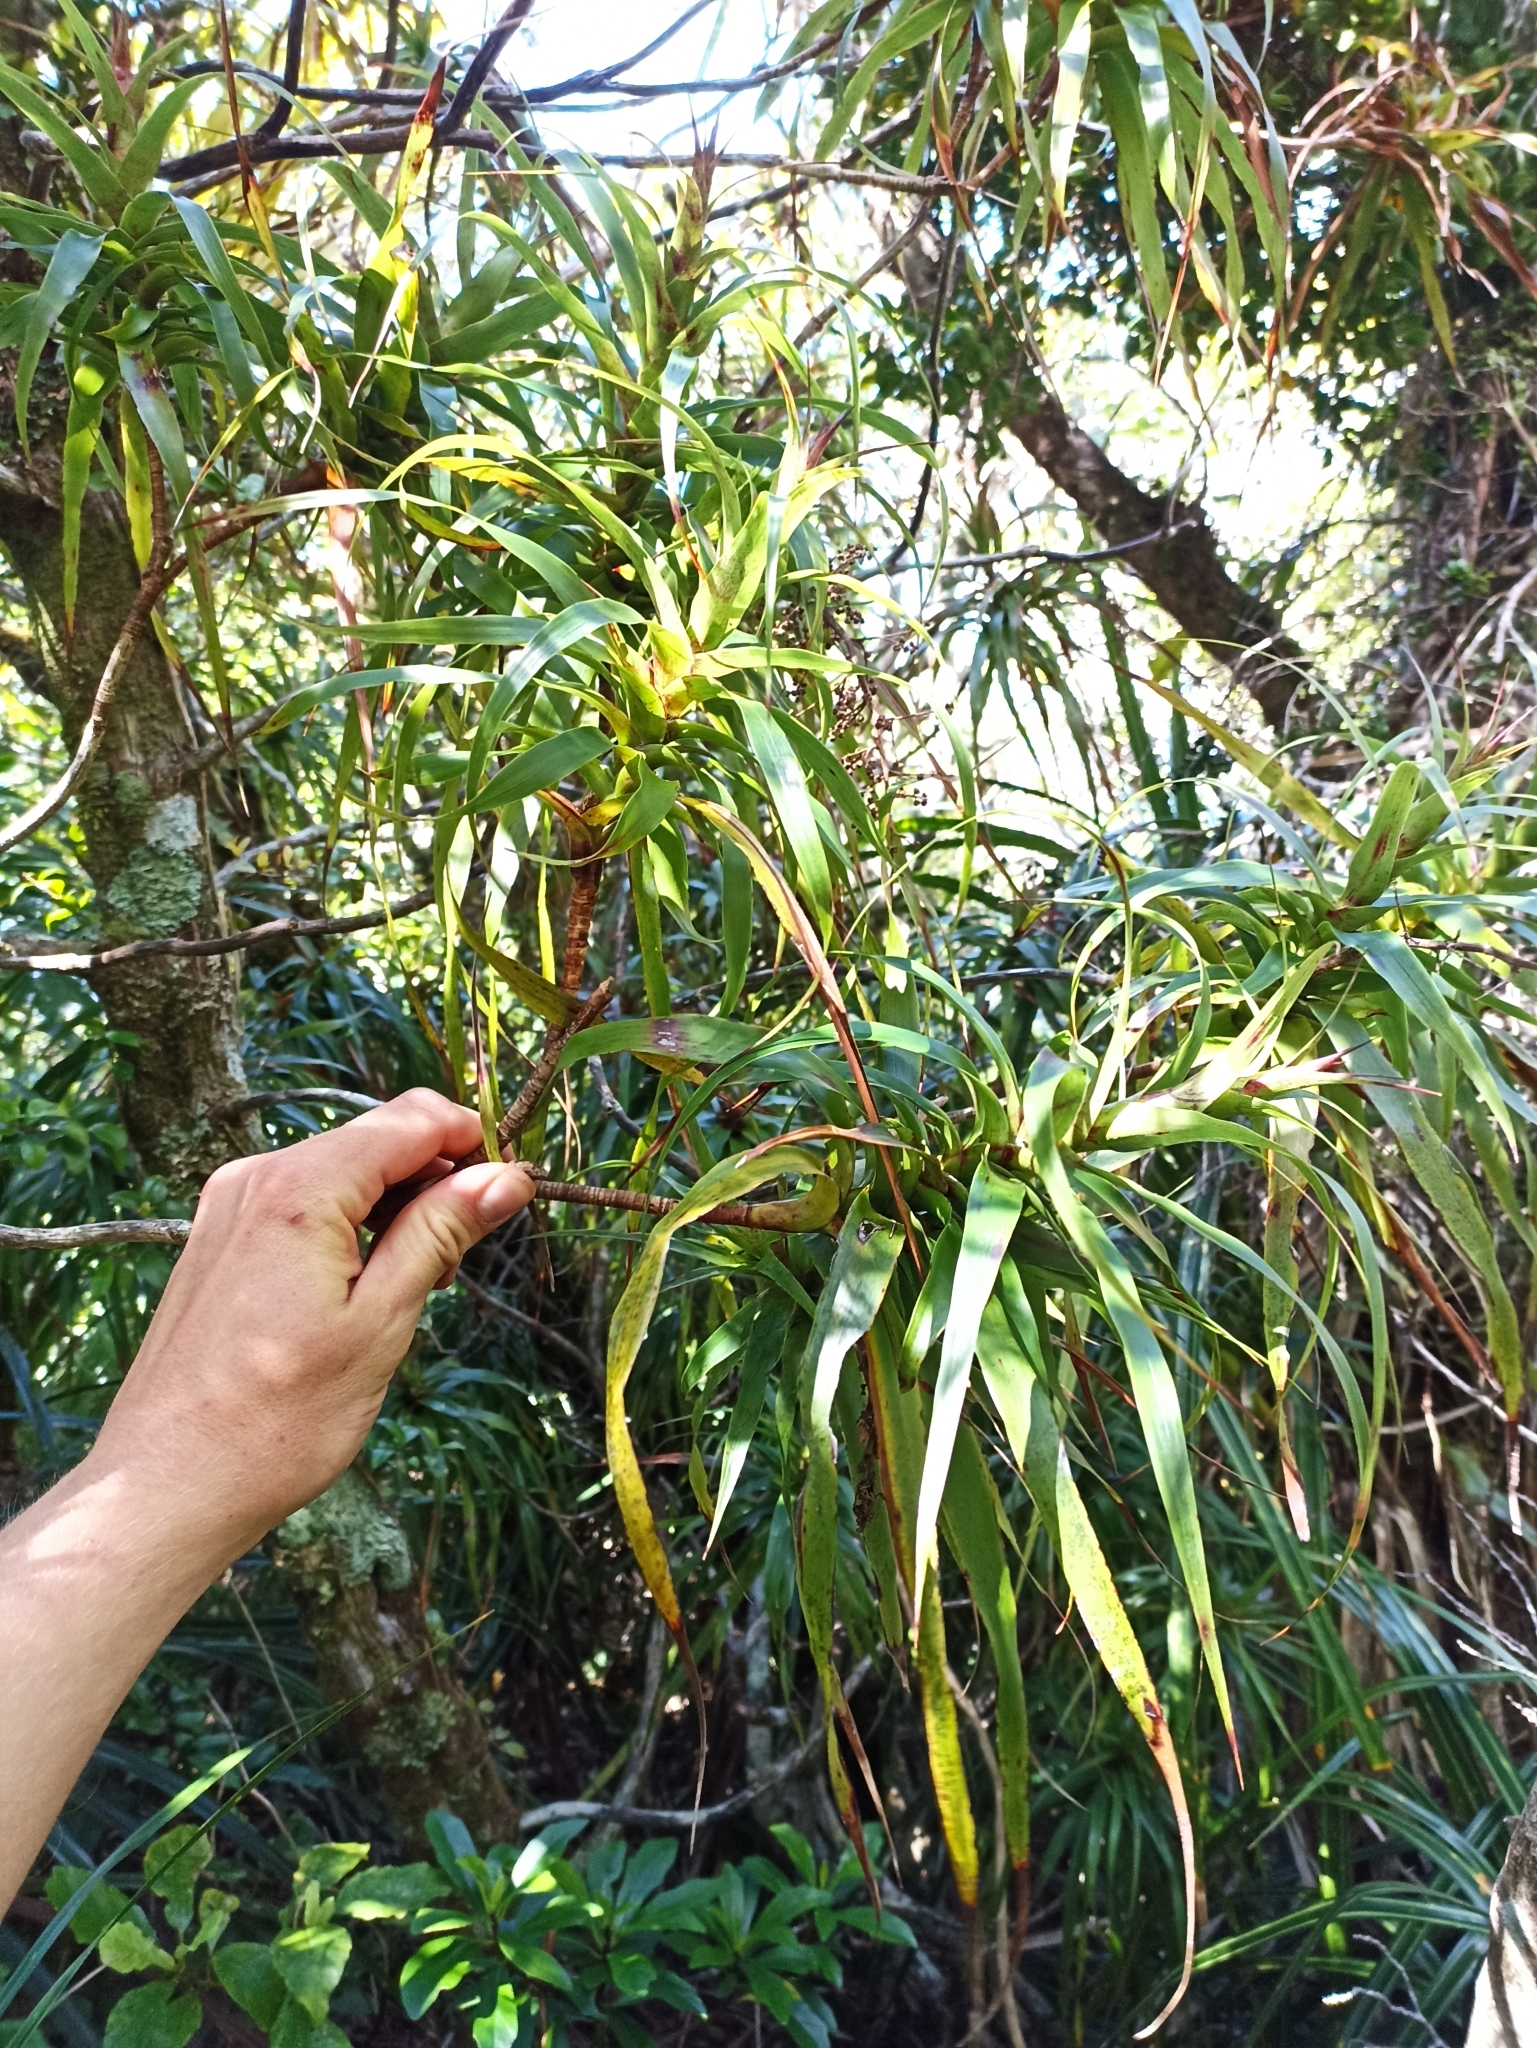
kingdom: Plantae
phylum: Tracheophyta
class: Magnoliopsida
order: Ericales
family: Ericaceae
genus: Dracophyllum
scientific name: Dracophyllum latifolium
